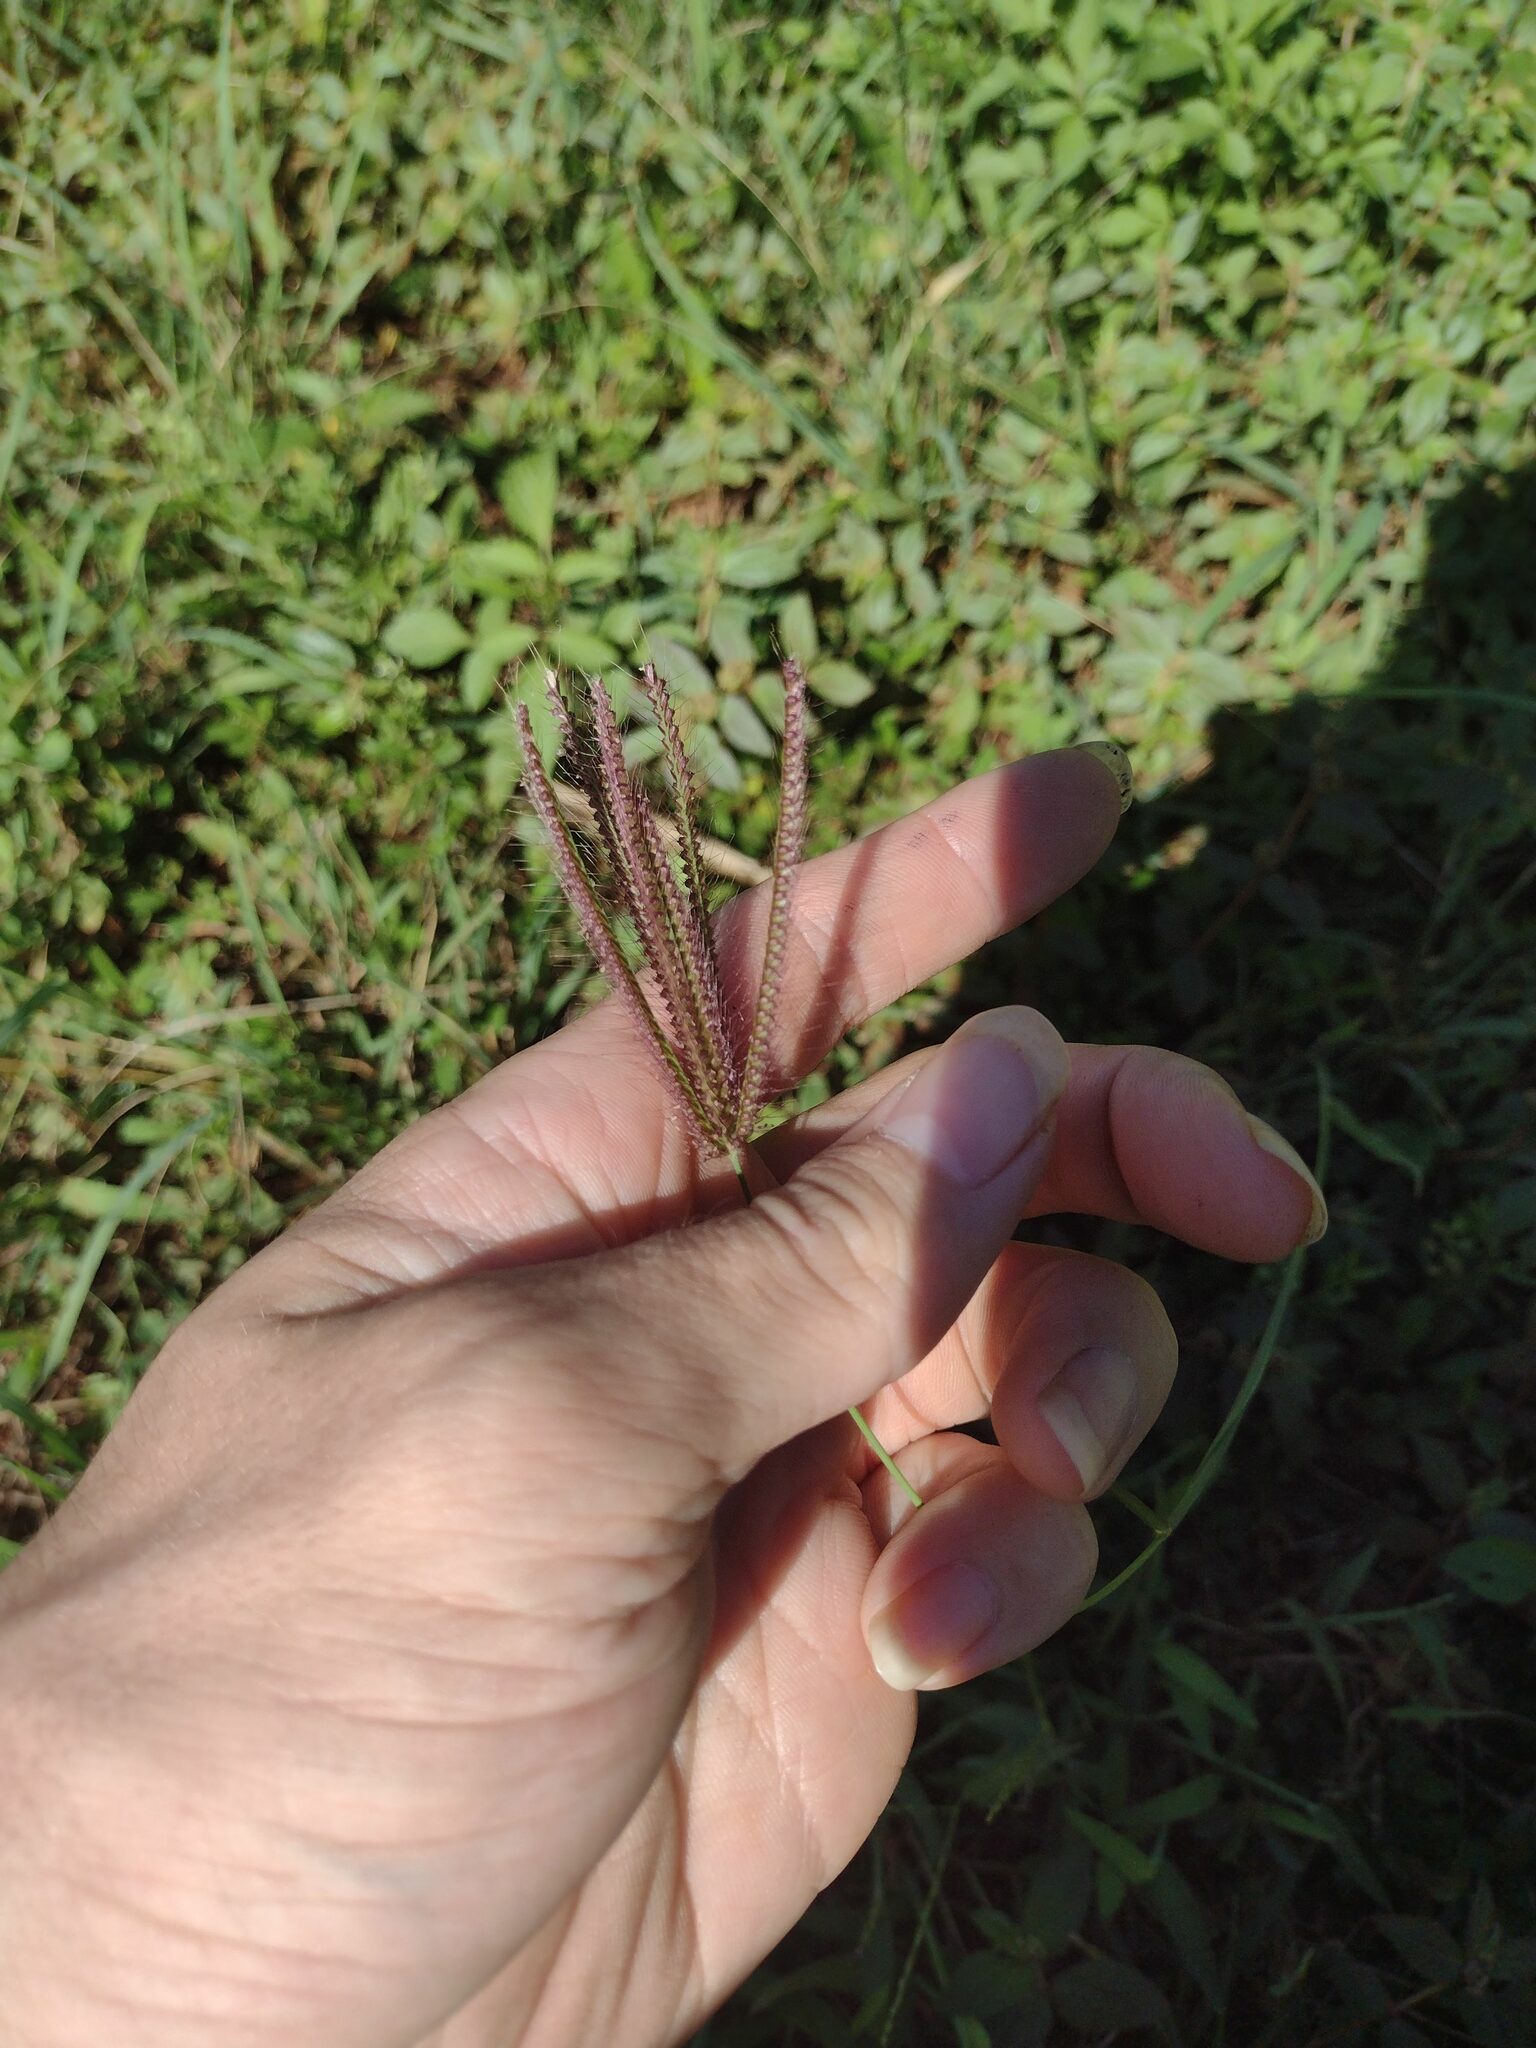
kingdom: Plantae
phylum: Tracheophyta
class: Liliopsida
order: Poales
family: Poaceae
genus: Chloris
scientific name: Chloris barbata
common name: Swollen fingergrass
